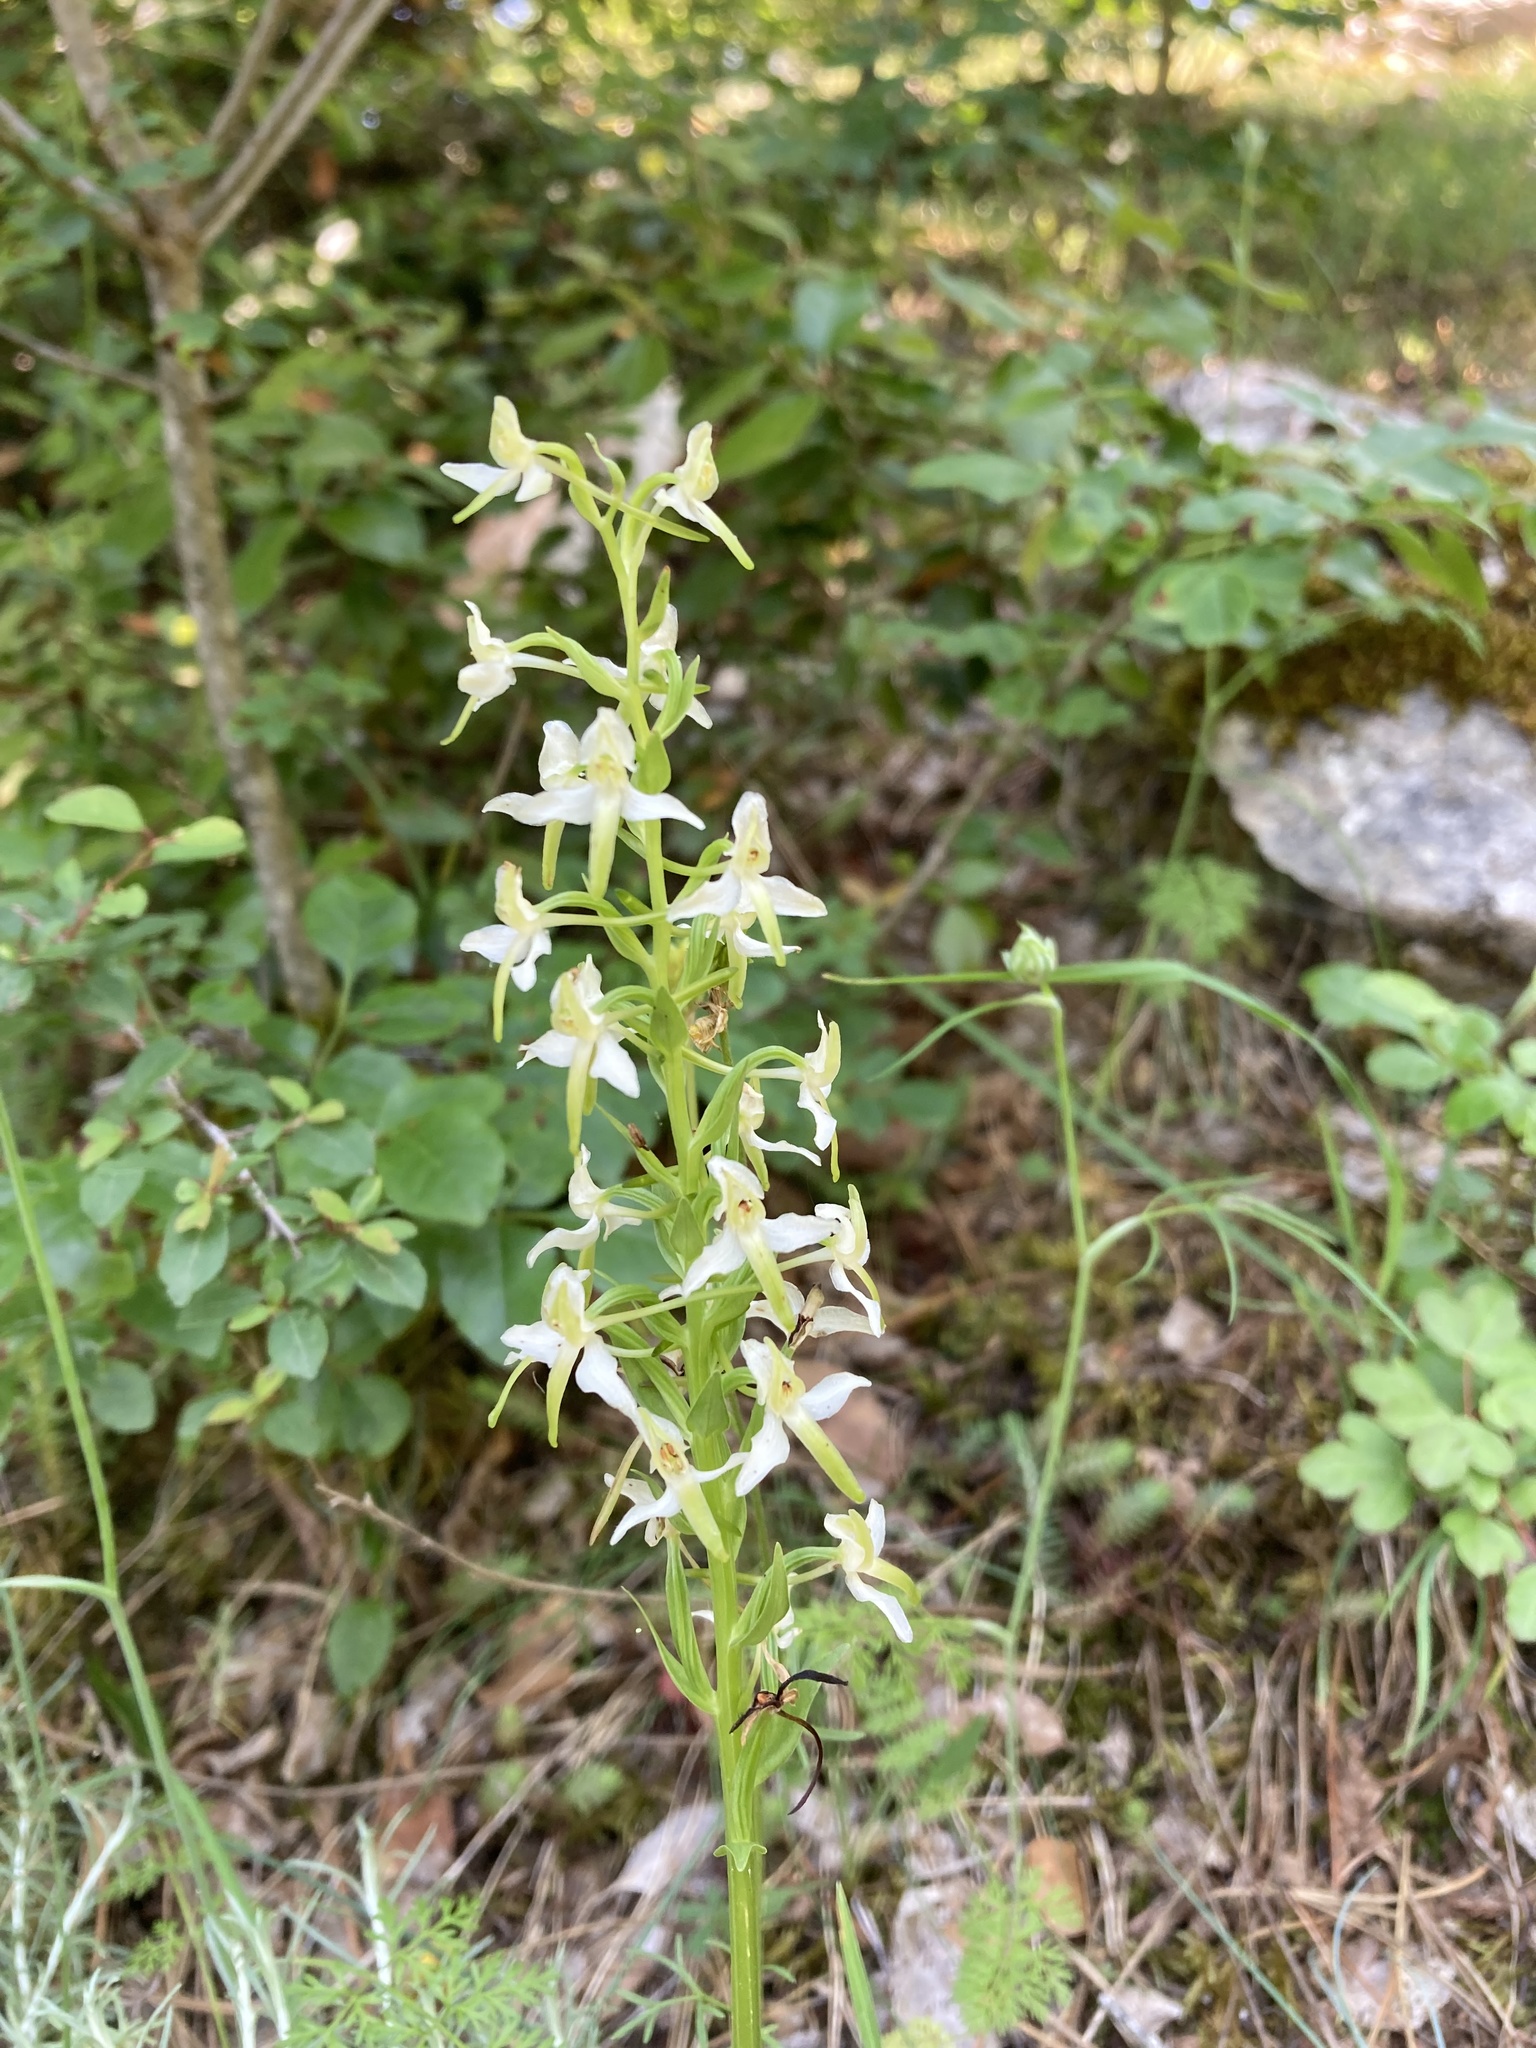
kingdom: Plantae
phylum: Tracheophyta
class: Liliopsida
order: Asparagales
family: Orchidaceae
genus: Platanthera
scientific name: Platanthera bifolia
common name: Lesser butterfly-orchid
